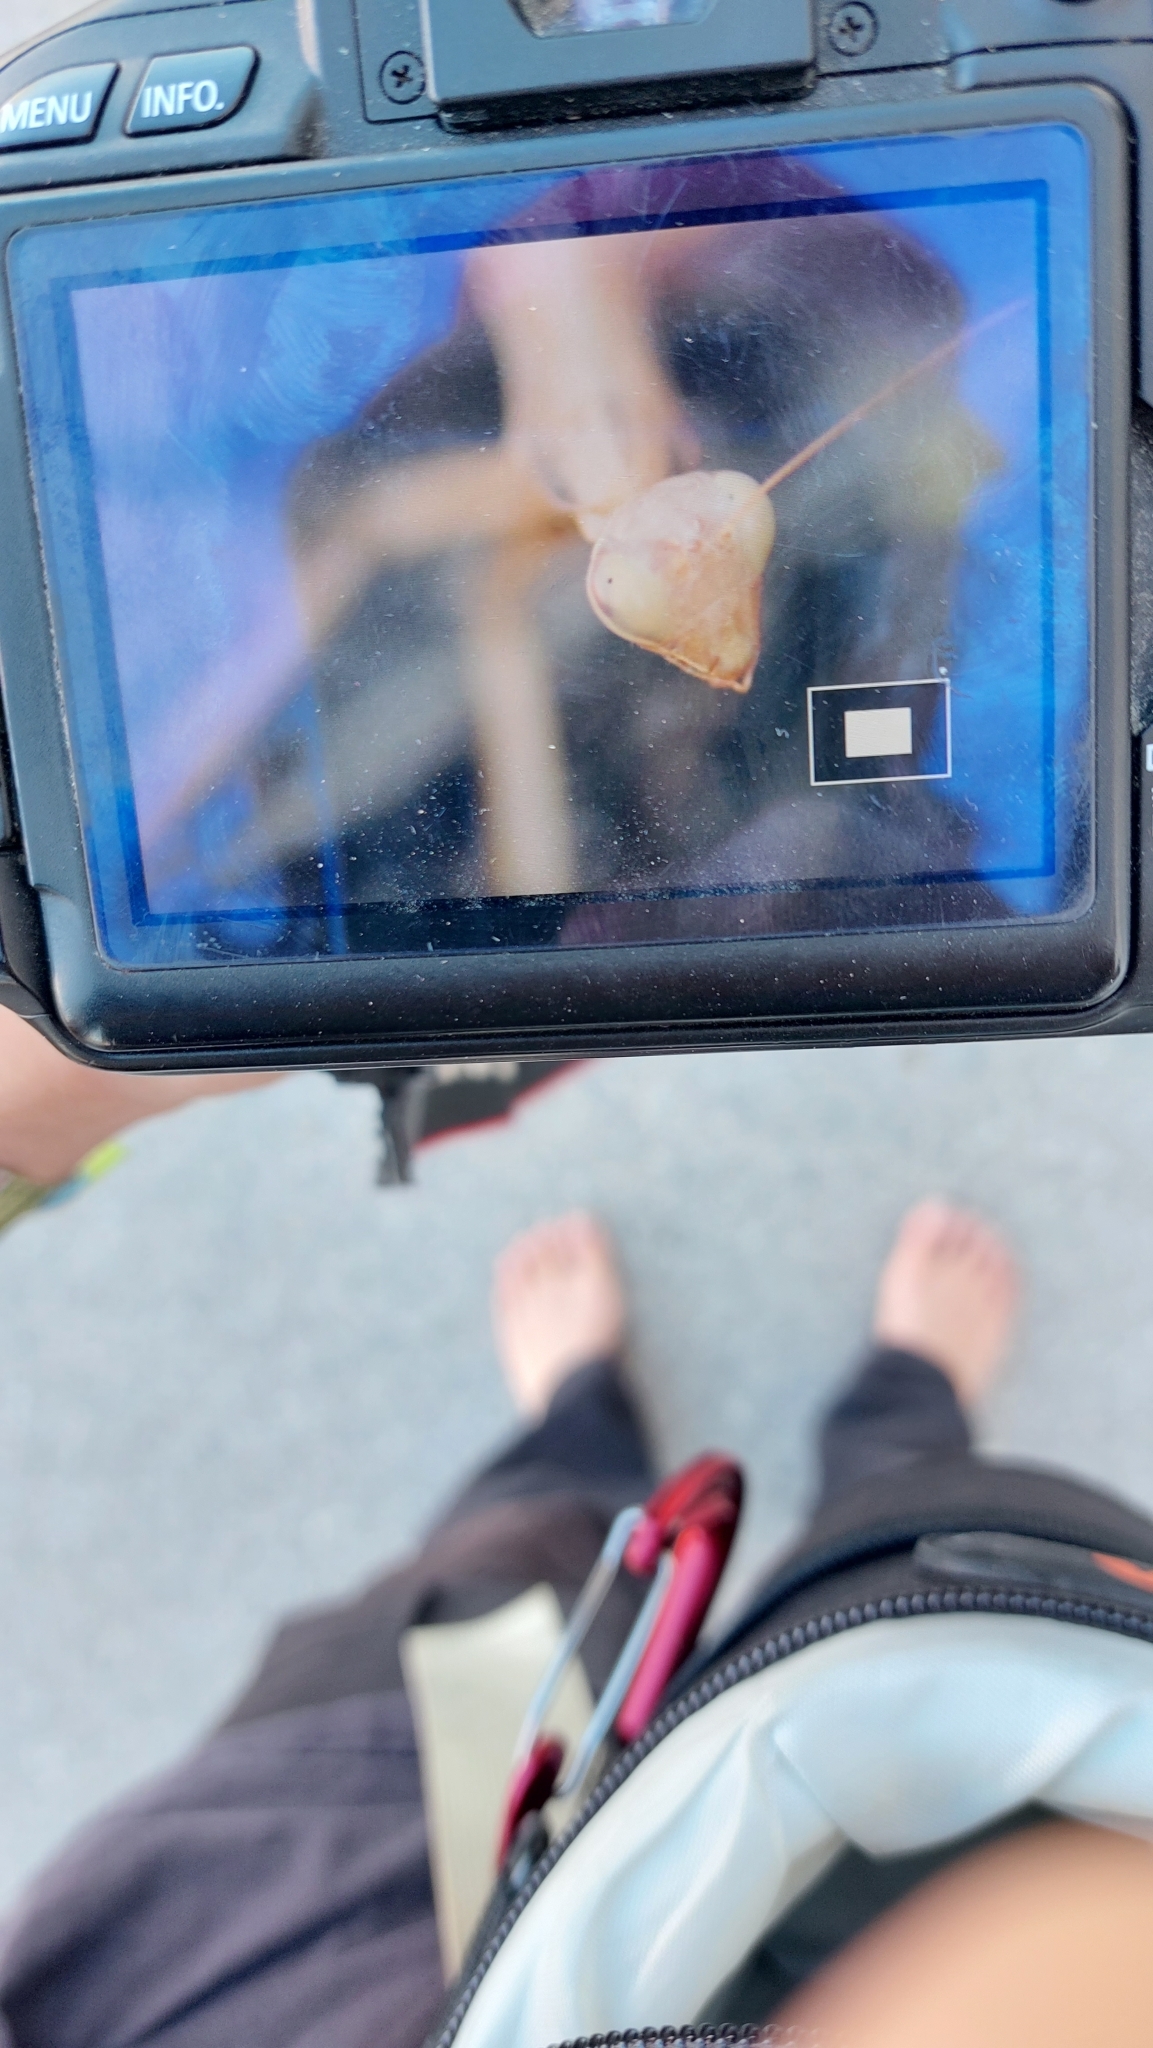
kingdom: Animalia
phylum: Arthropoda
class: Insecta
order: Mantodea
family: Mantidae
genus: Mantis
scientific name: Mantis religiosa
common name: Praying mantis
